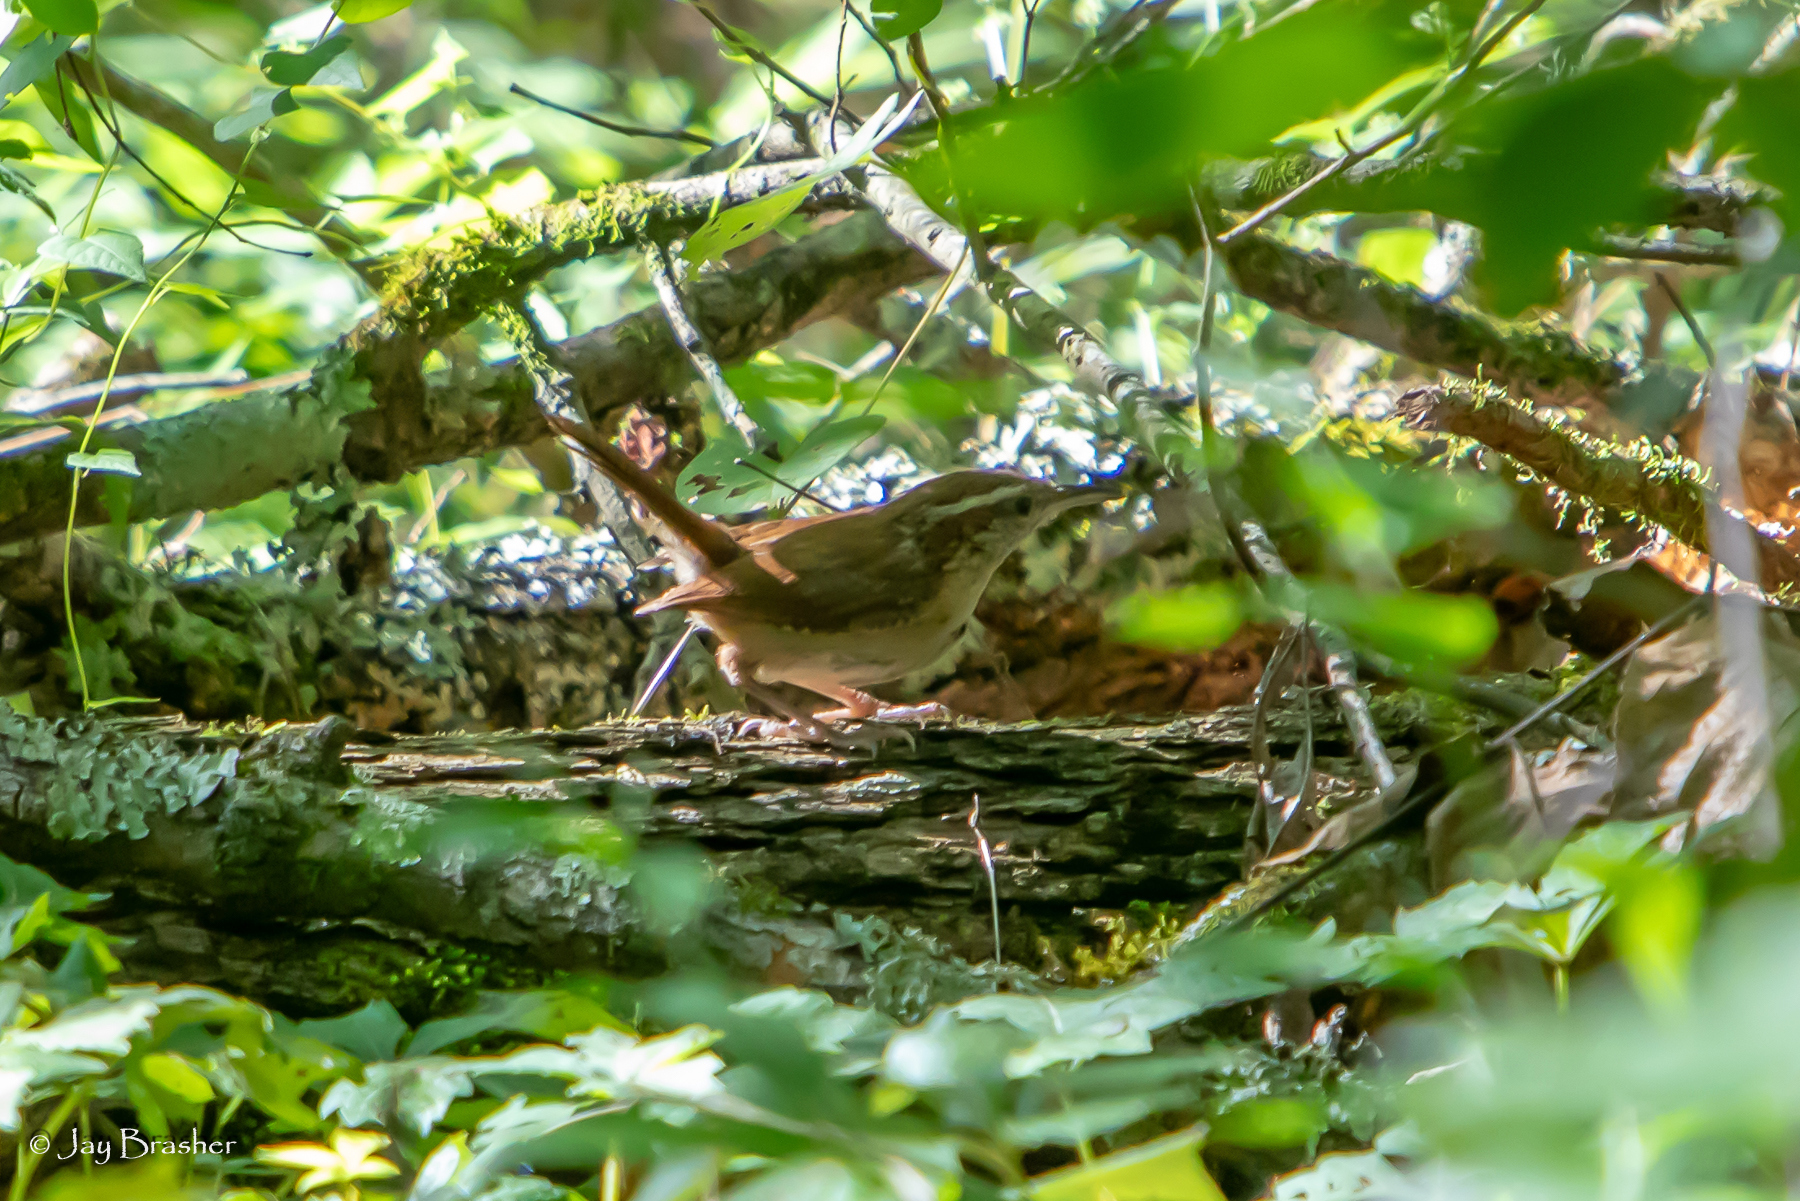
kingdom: Animalia
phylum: Chordata
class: Aves
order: Passeriformes
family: Troglodytidae
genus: Thryothorus
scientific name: Thryothorus ludovicianus
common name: Carolina wren
